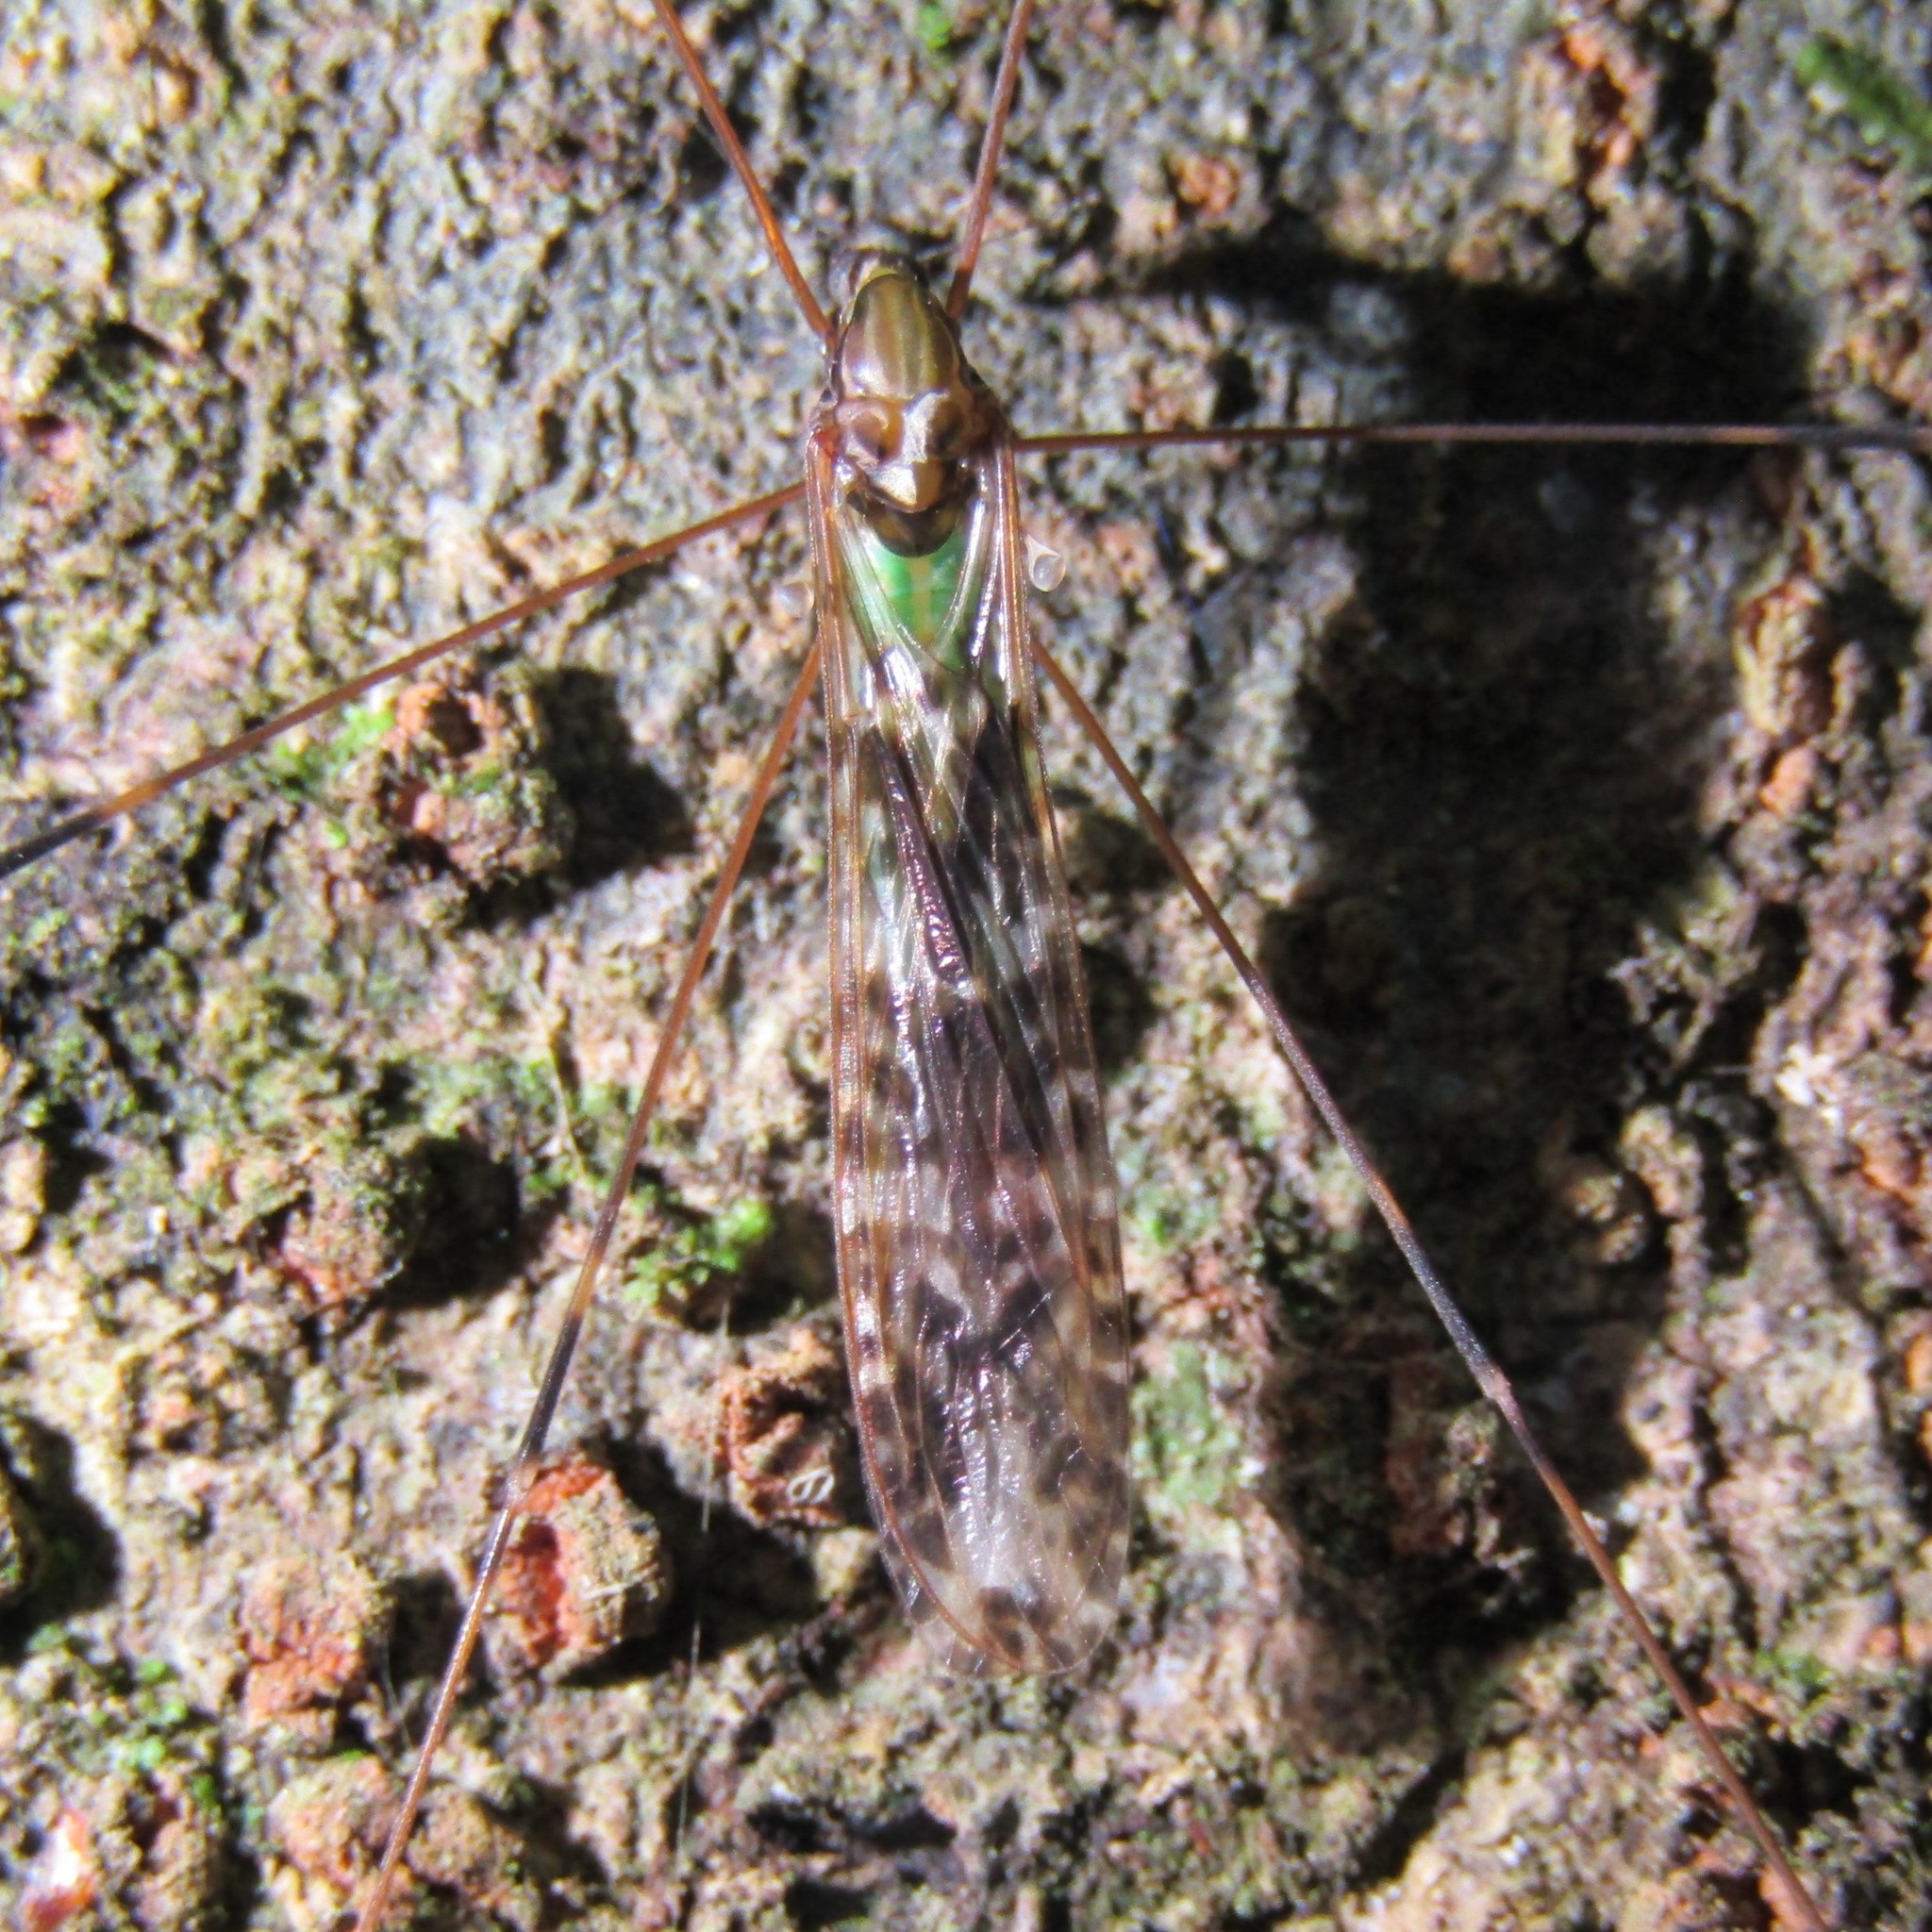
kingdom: Animalia
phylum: Arthropoda
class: Insecta
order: Diptera
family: Limoniidae
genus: Discobola
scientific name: Discobola dohrni
